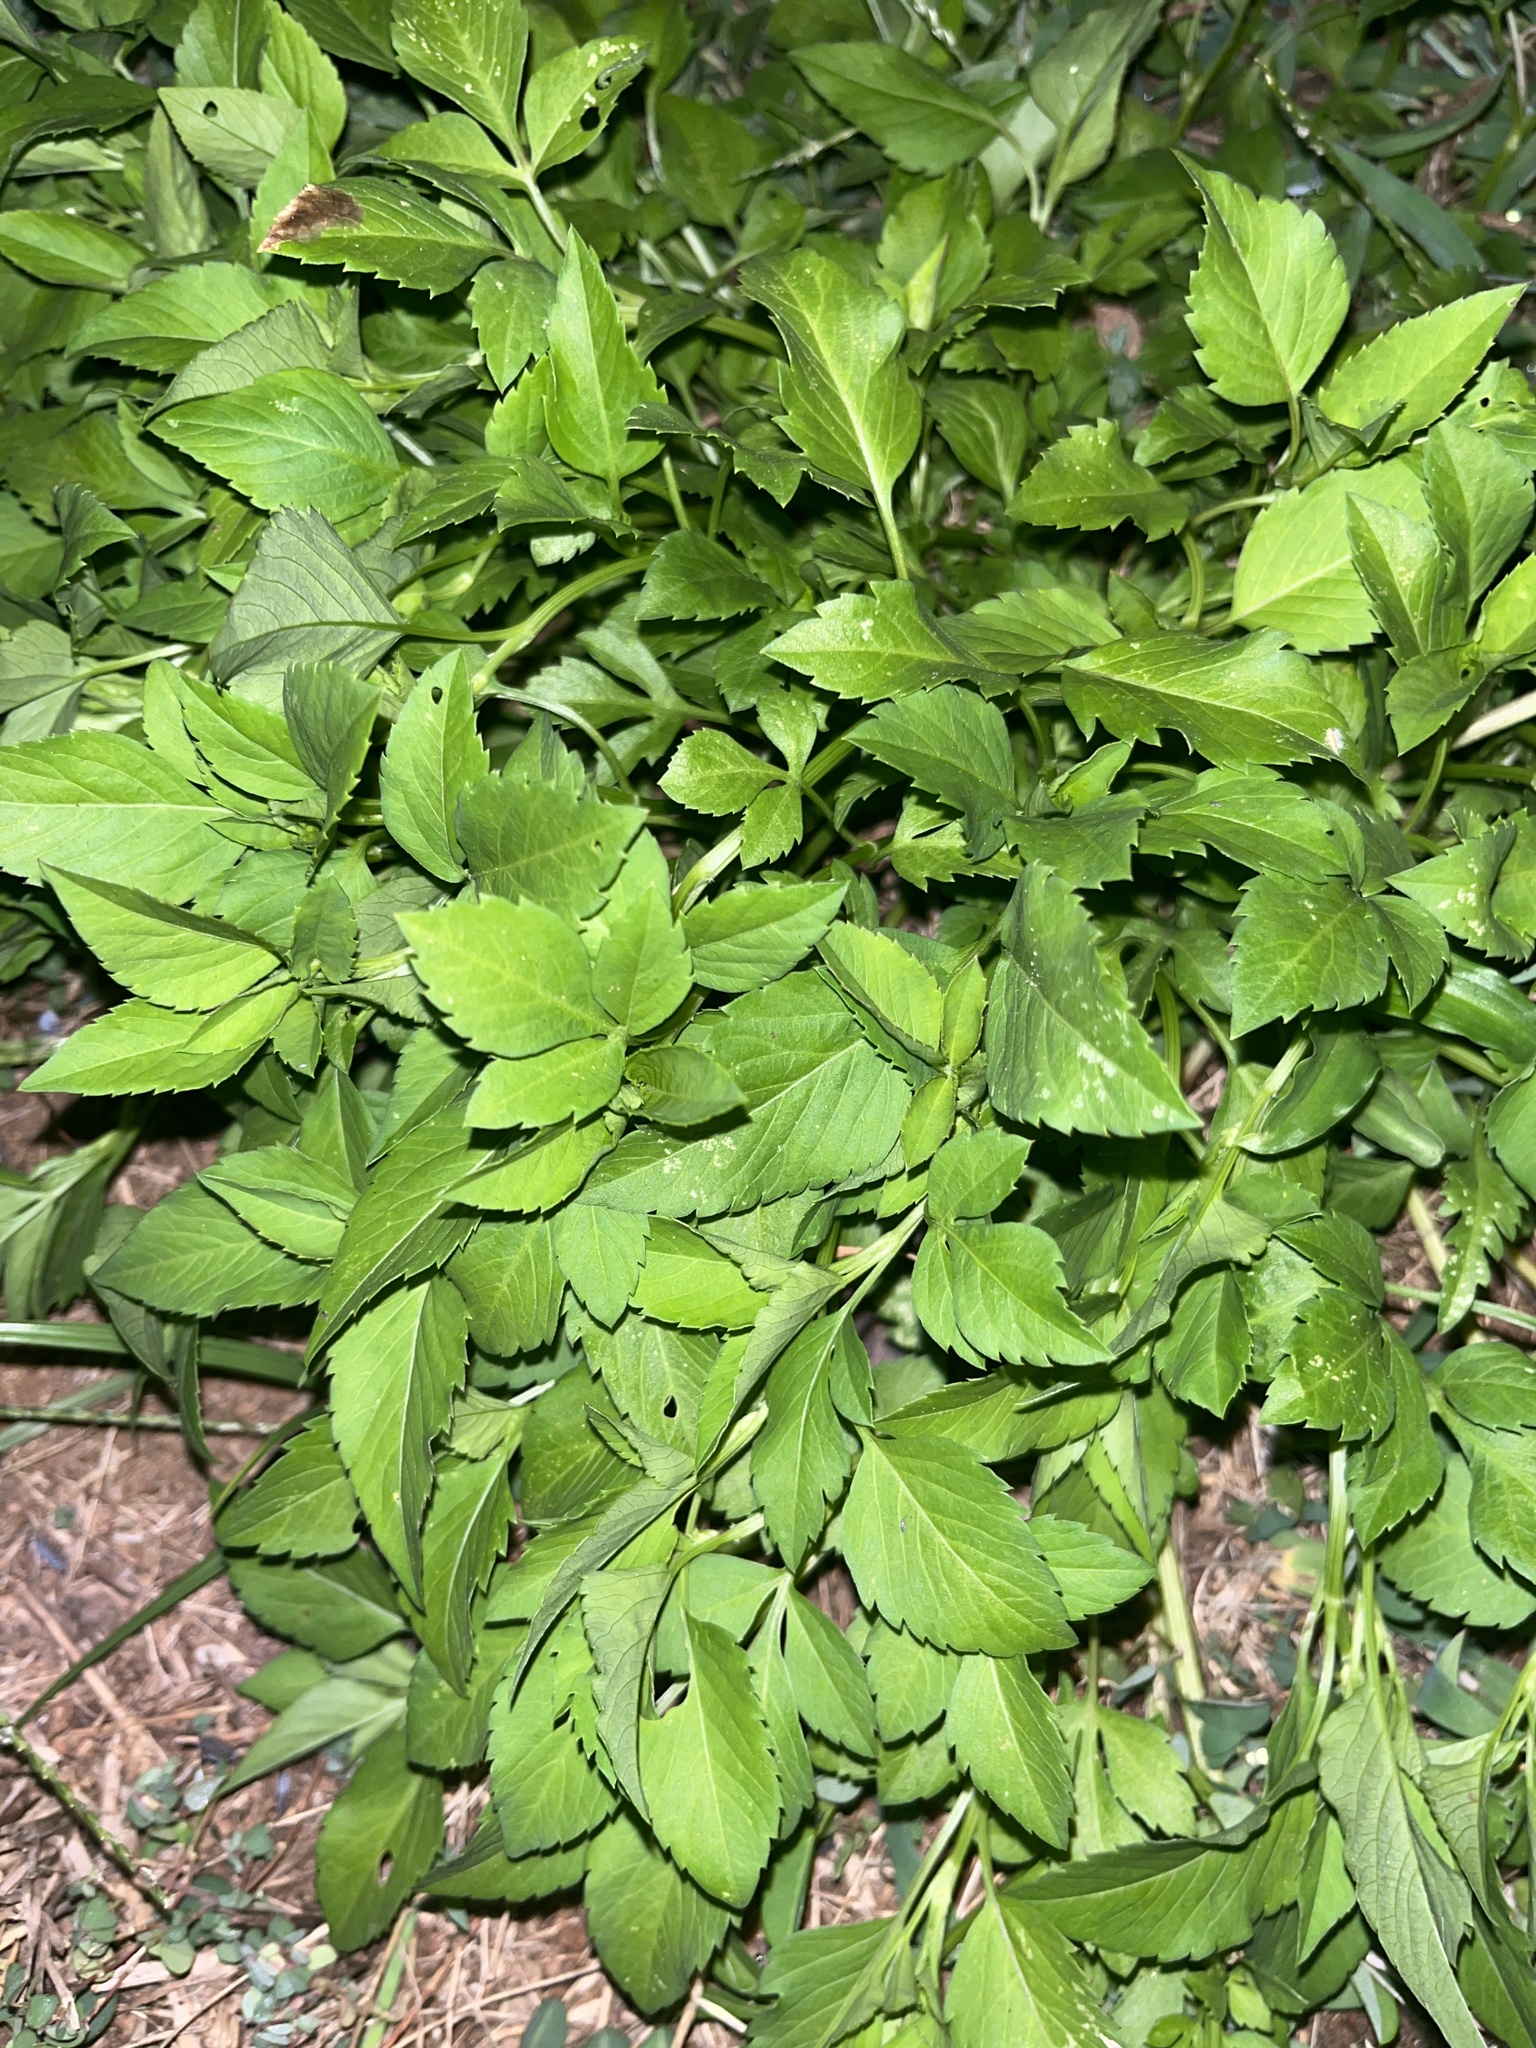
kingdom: Plantae
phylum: Tracheophyta
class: Magnoliopsida
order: Asterales
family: Asteraceae
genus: Bidens
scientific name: Bidens alba
